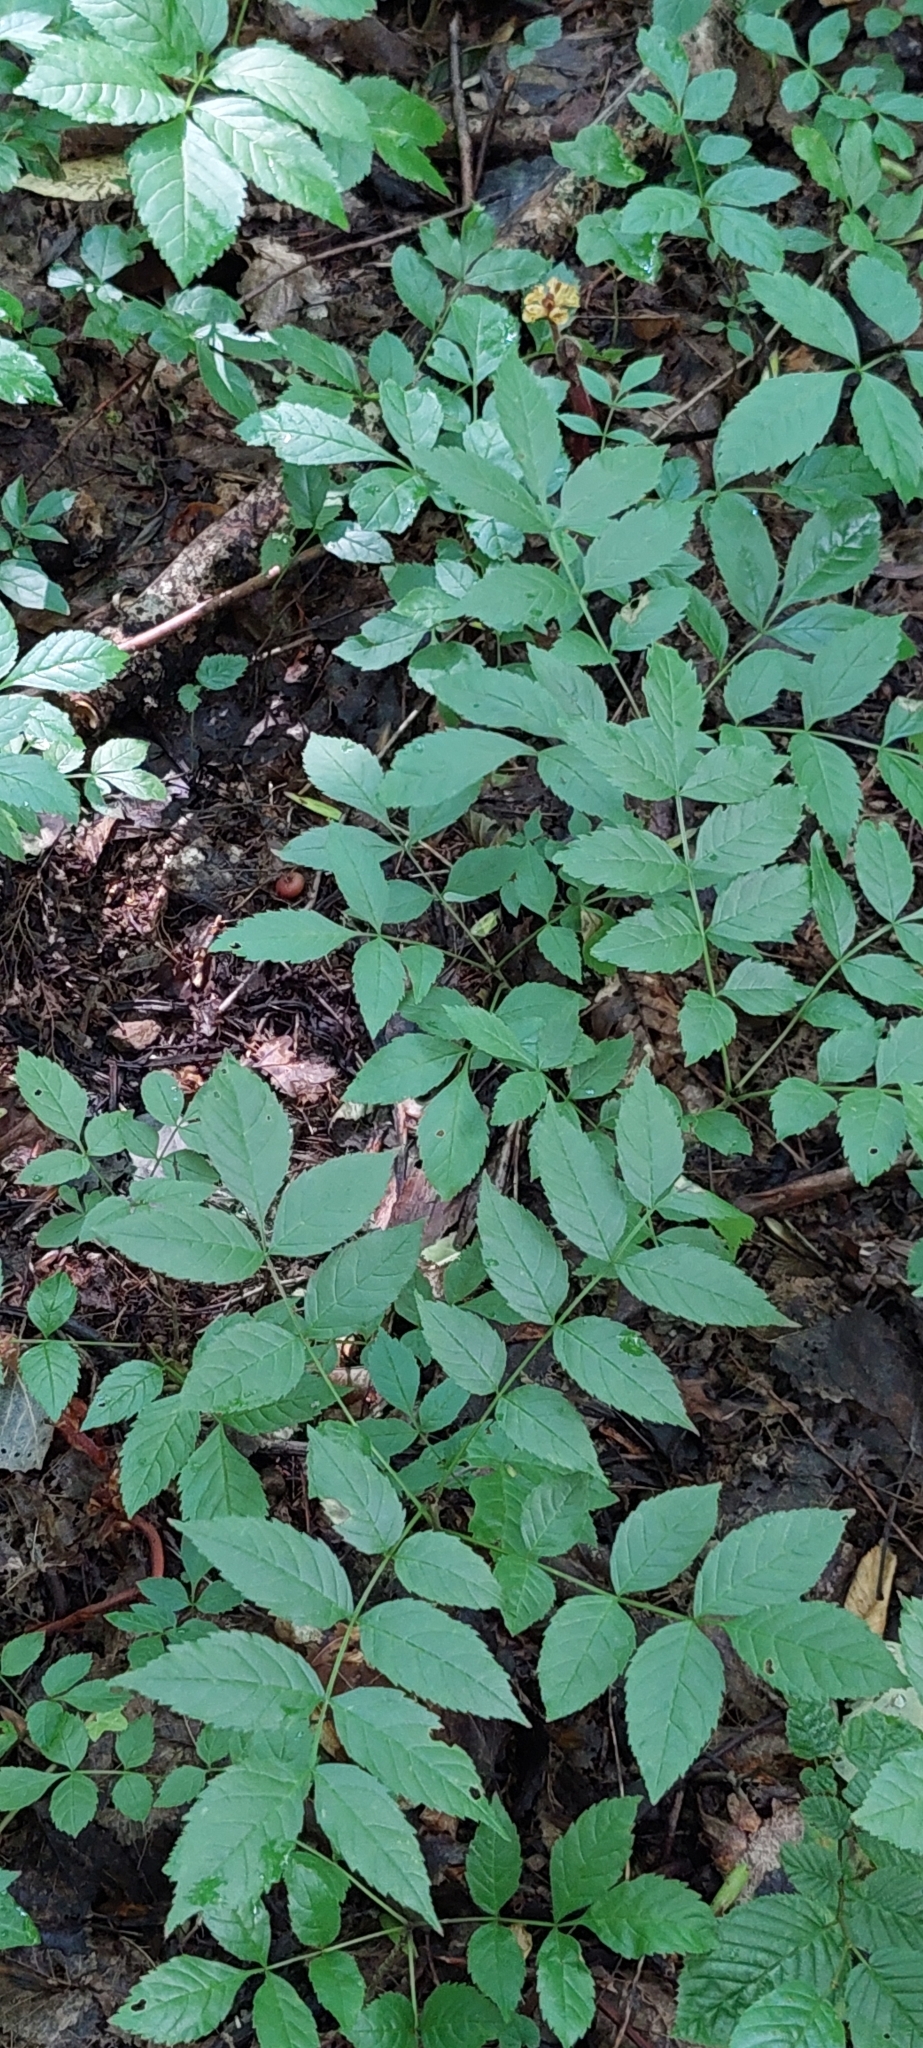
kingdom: Plantae
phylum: Tracheophyta
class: Magnoliopsida
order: Lamiales
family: Oleaceae
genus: Fraxinus
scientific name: Fraxinus excelsior
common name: European ash
